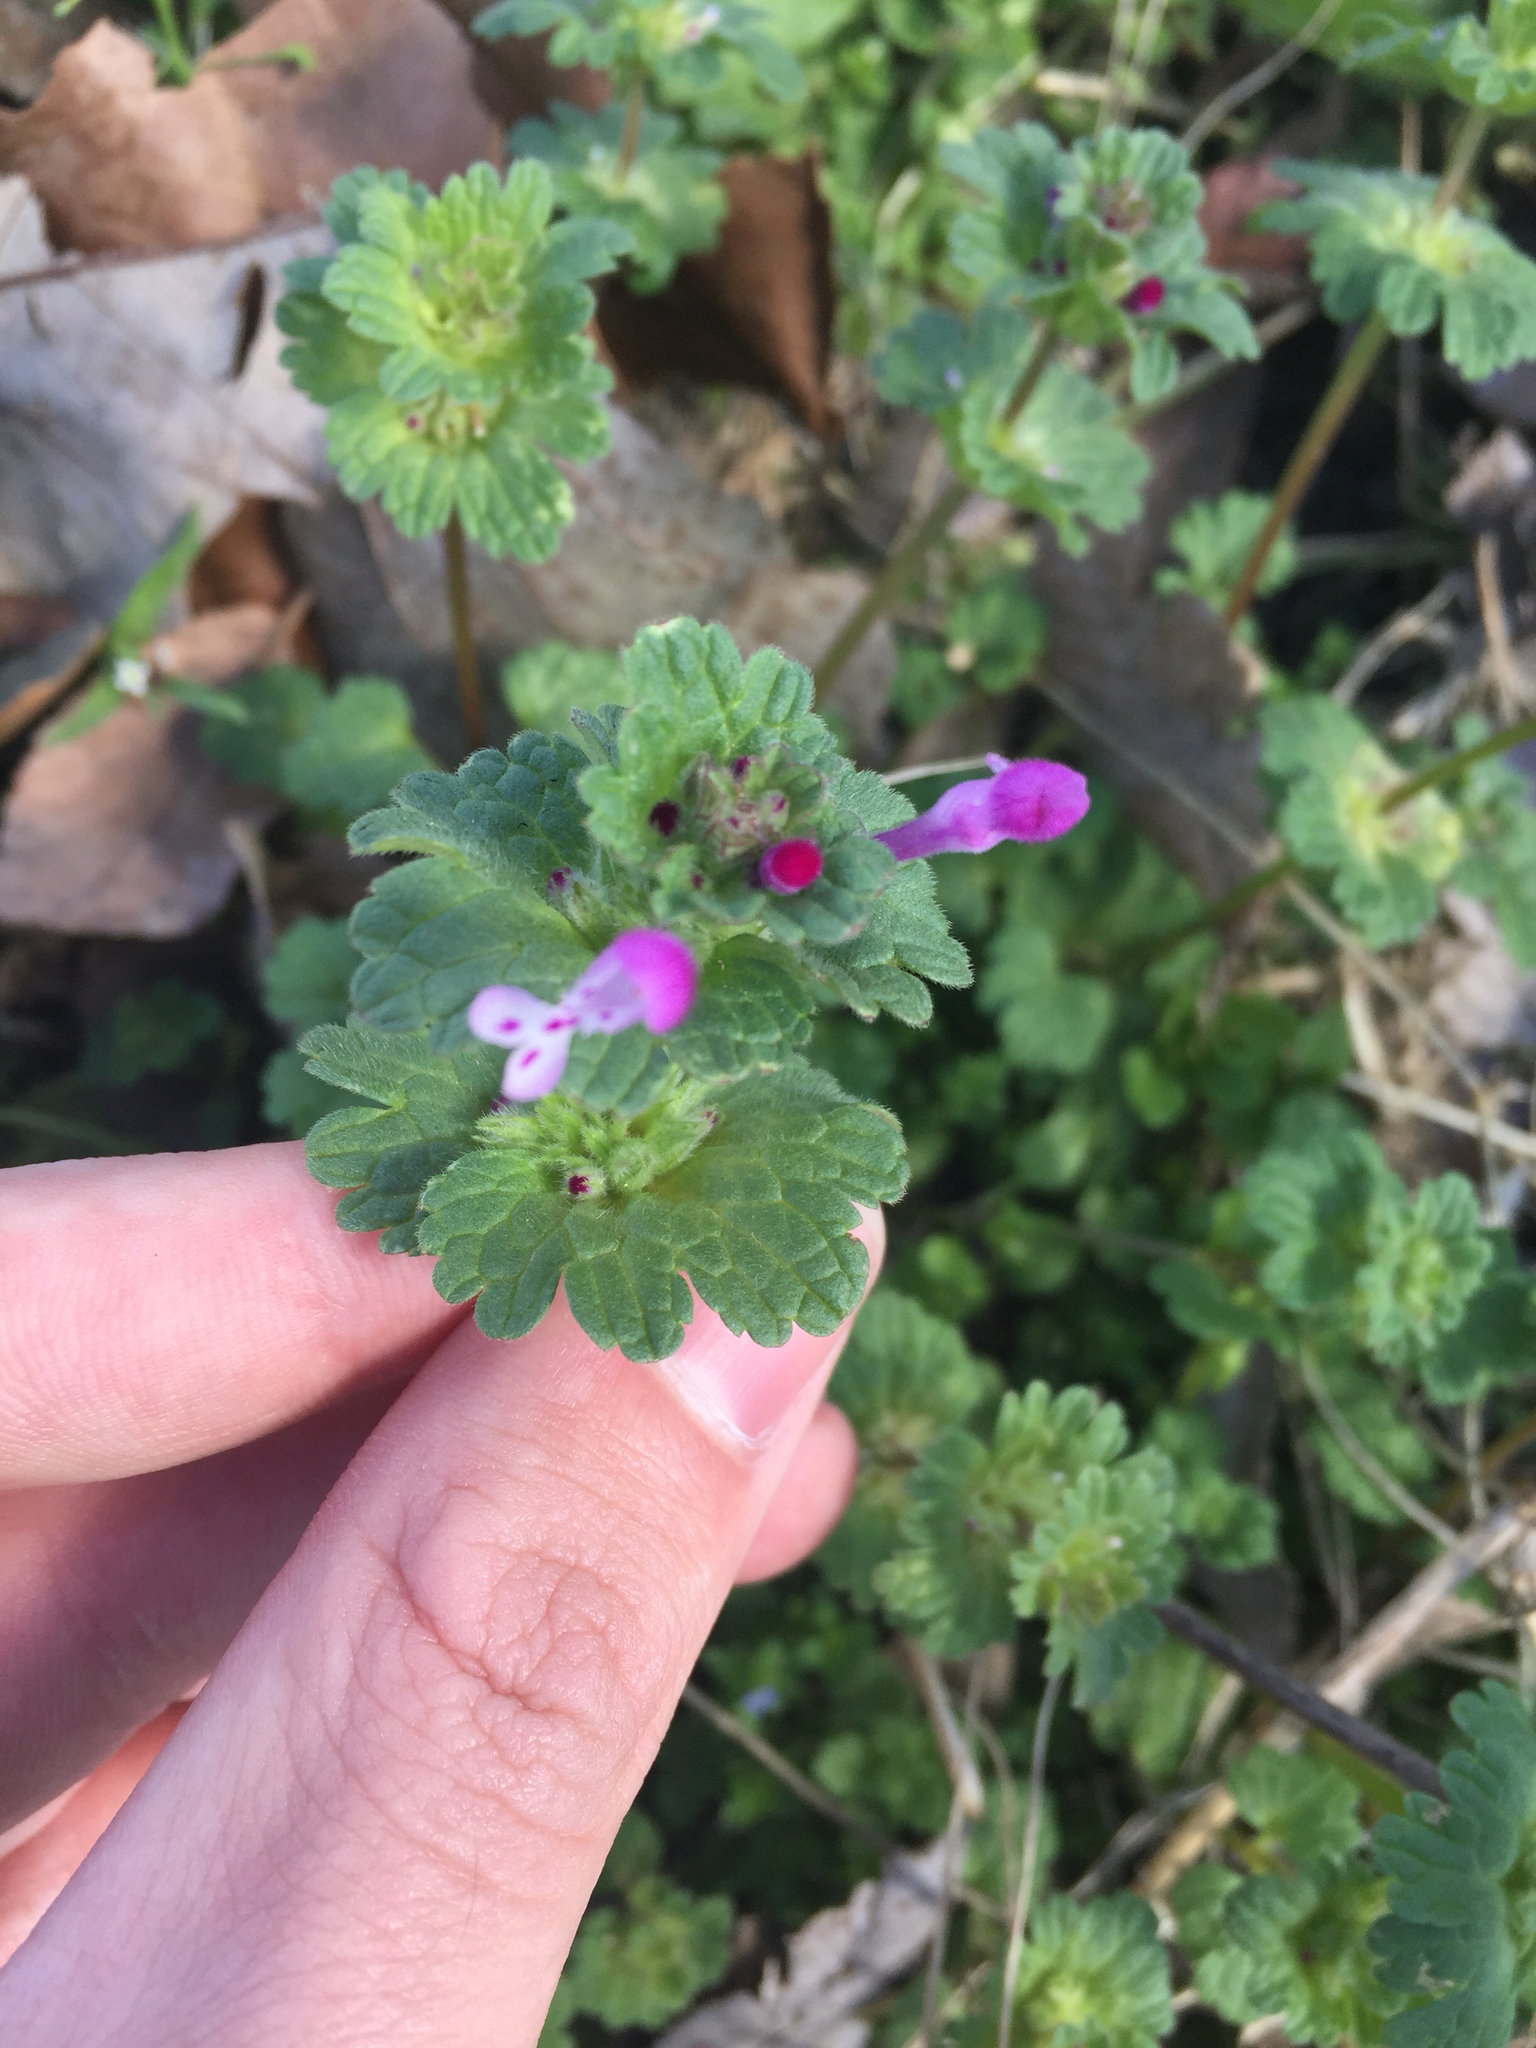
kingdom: Plantae
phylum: Tracheophyta
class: Magnoliopsida
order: Lamiales
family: Lamiaceae
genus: Lamium
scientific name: Lamium amplexicaule
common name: Henbit dead-nettle
